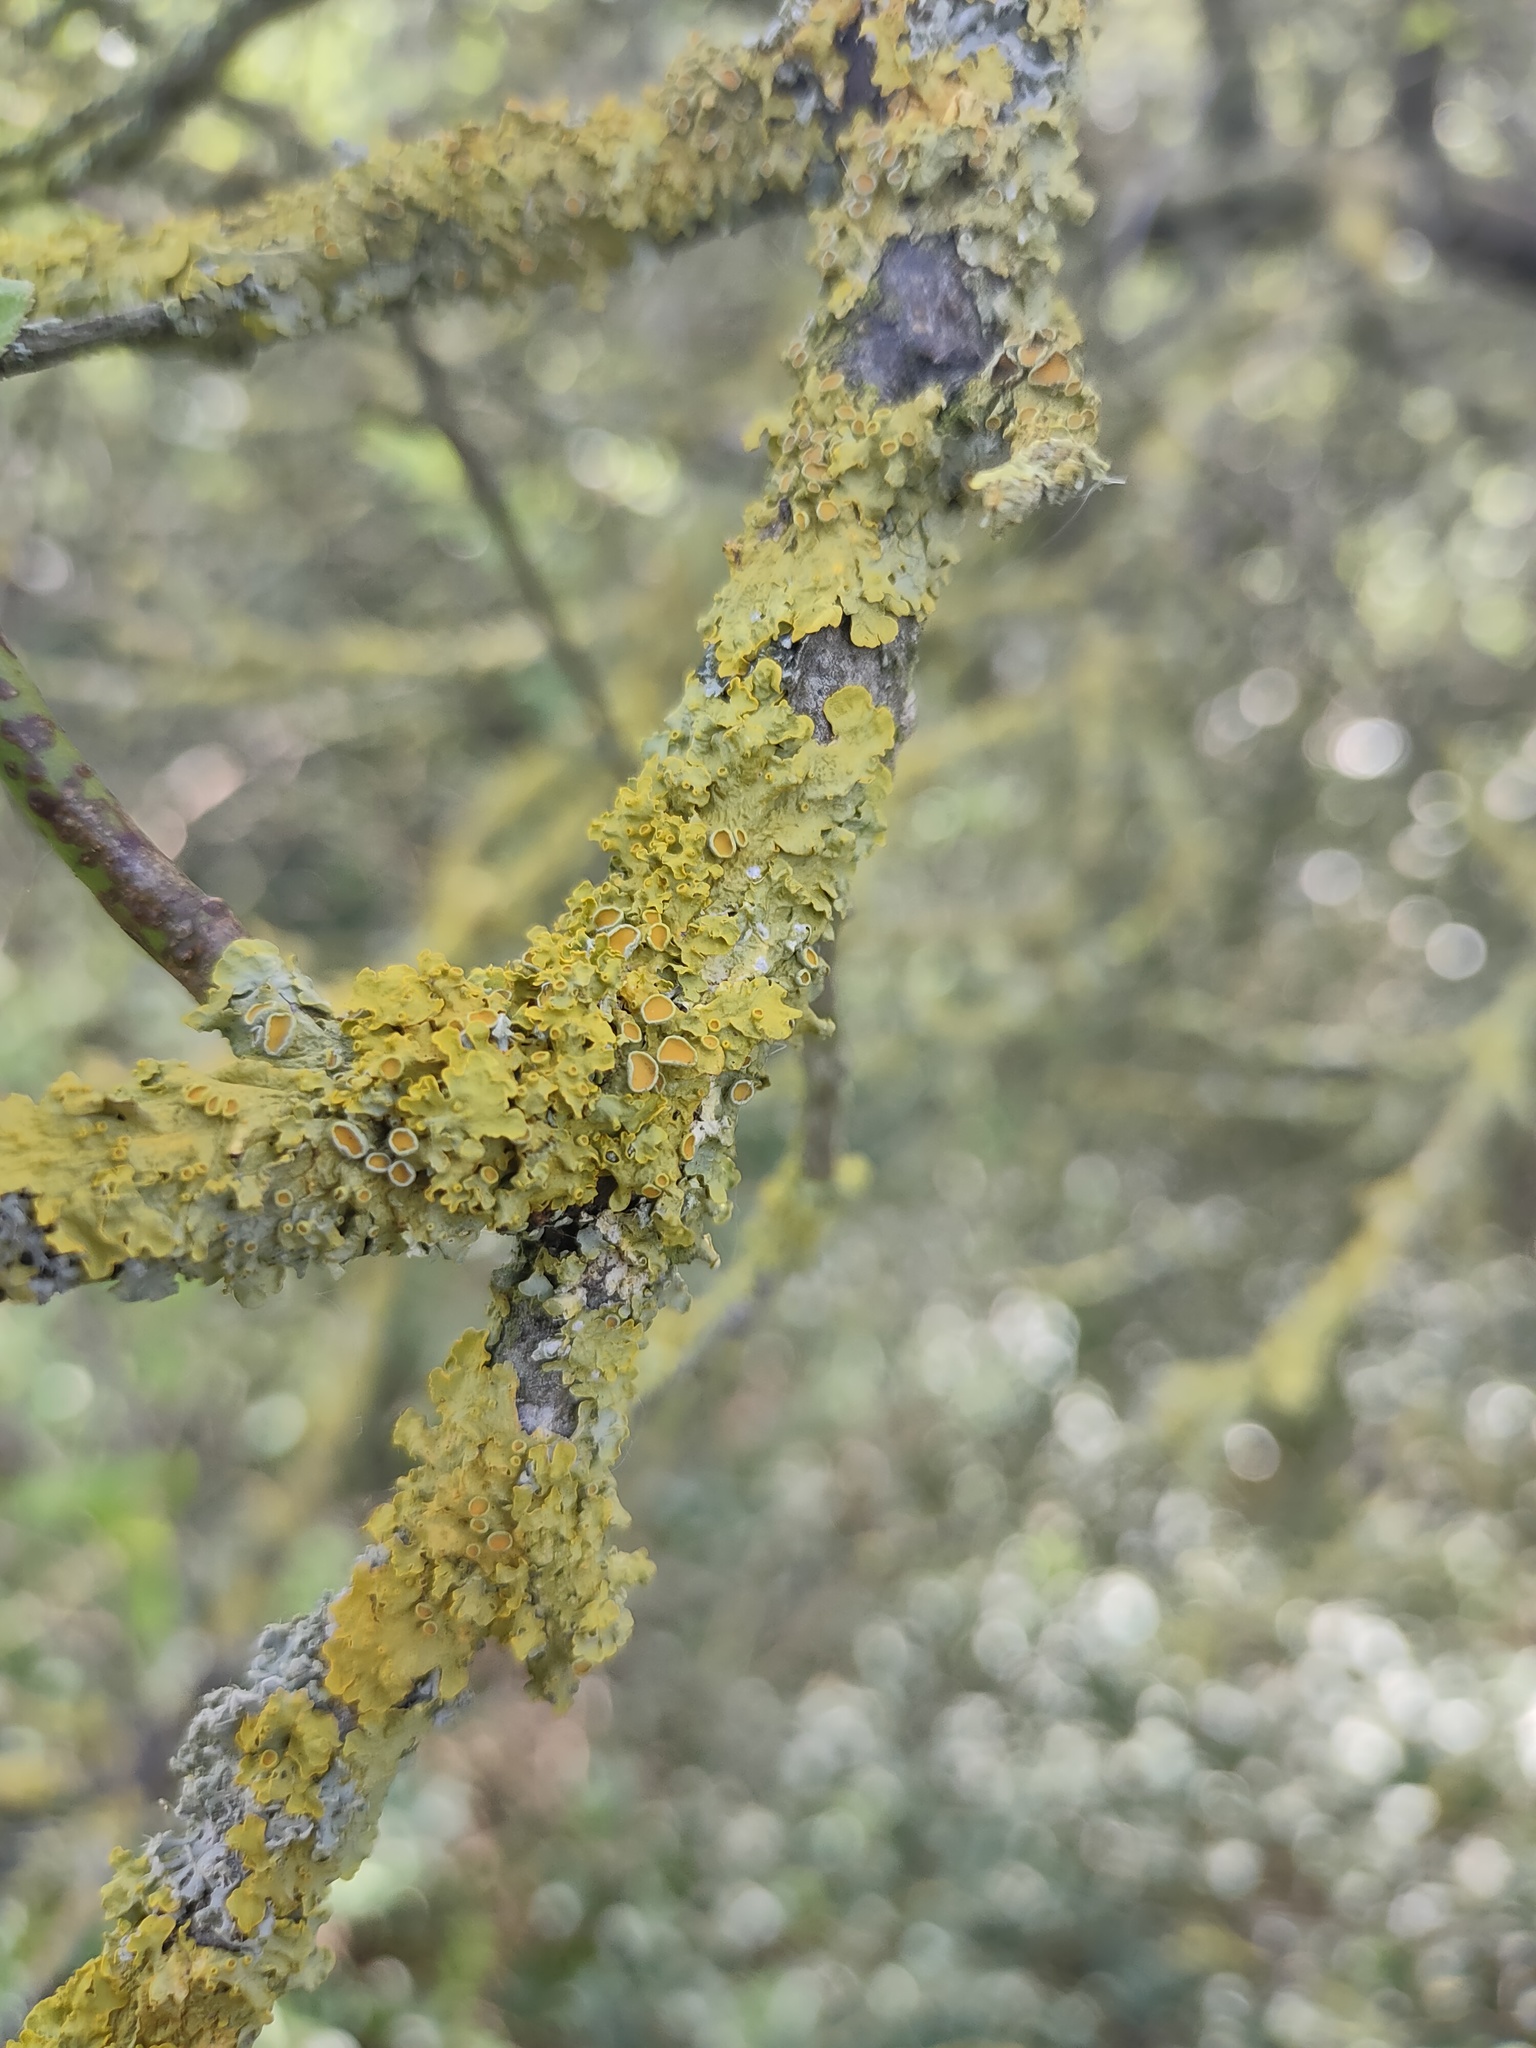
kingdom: Fungi
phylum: Ascomycota
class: Lecanoromycetes
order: Teloschistales
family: Teloschistaceae
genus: Xanthoria
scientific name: Xanthoria parietina
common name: Common orange lichen
